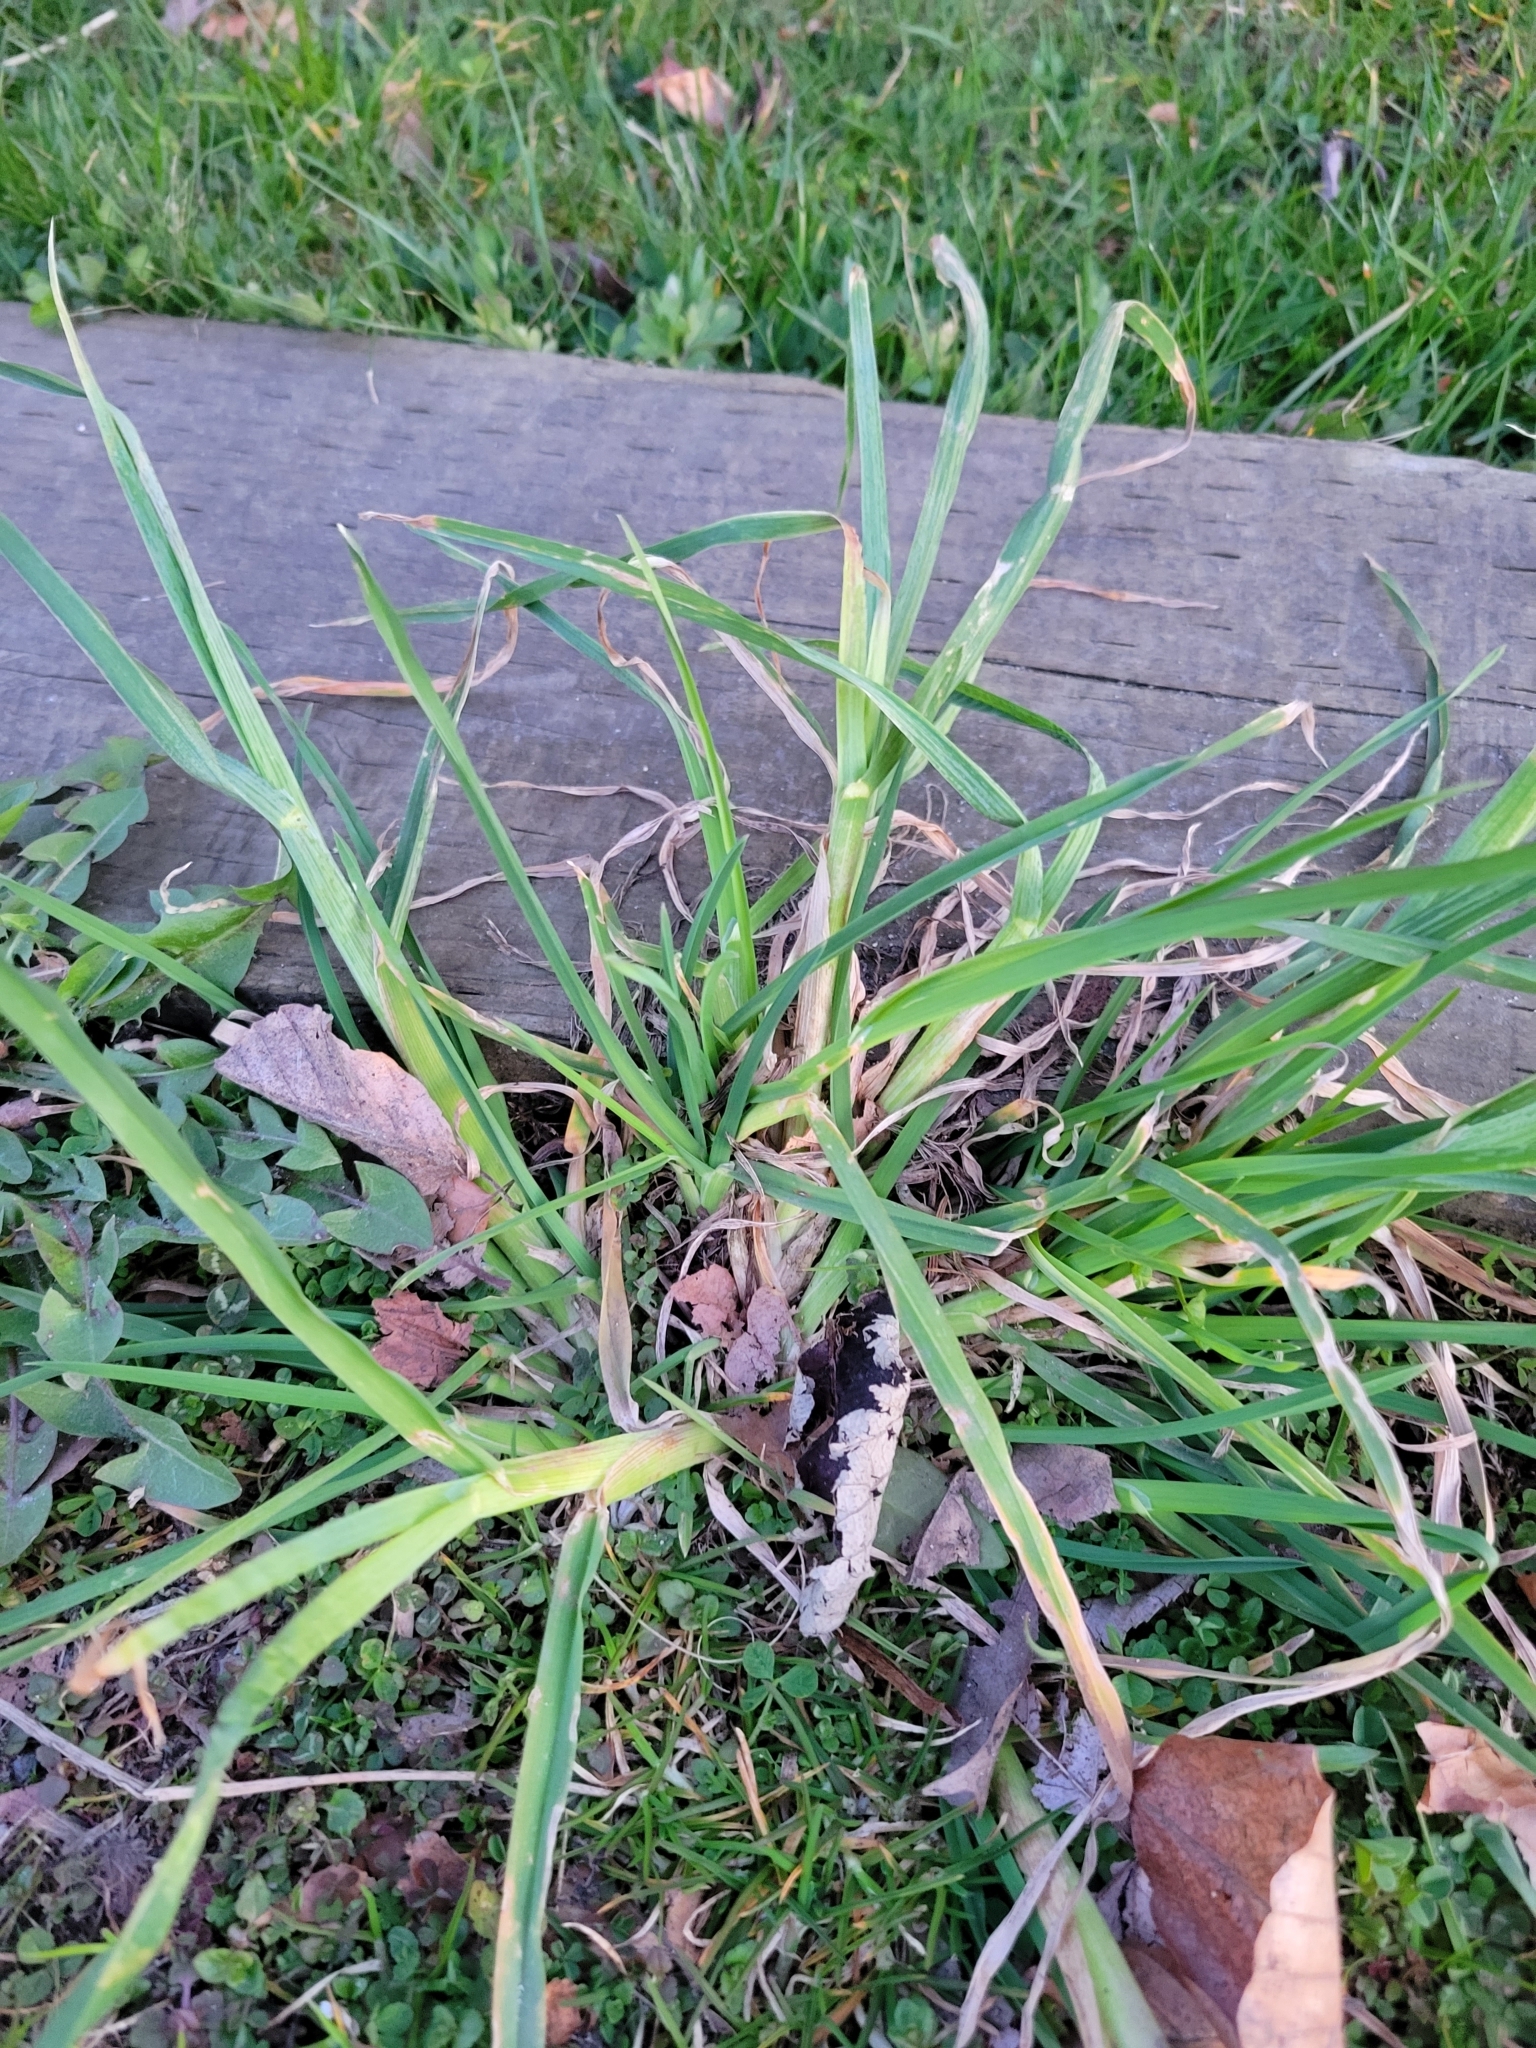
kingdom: Plantae
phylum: Tracheophyta
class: Liliopsida
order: Poales
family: Poaceae
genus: Dactylis
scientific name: Dactylis glomerata
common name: Orchardgrass
